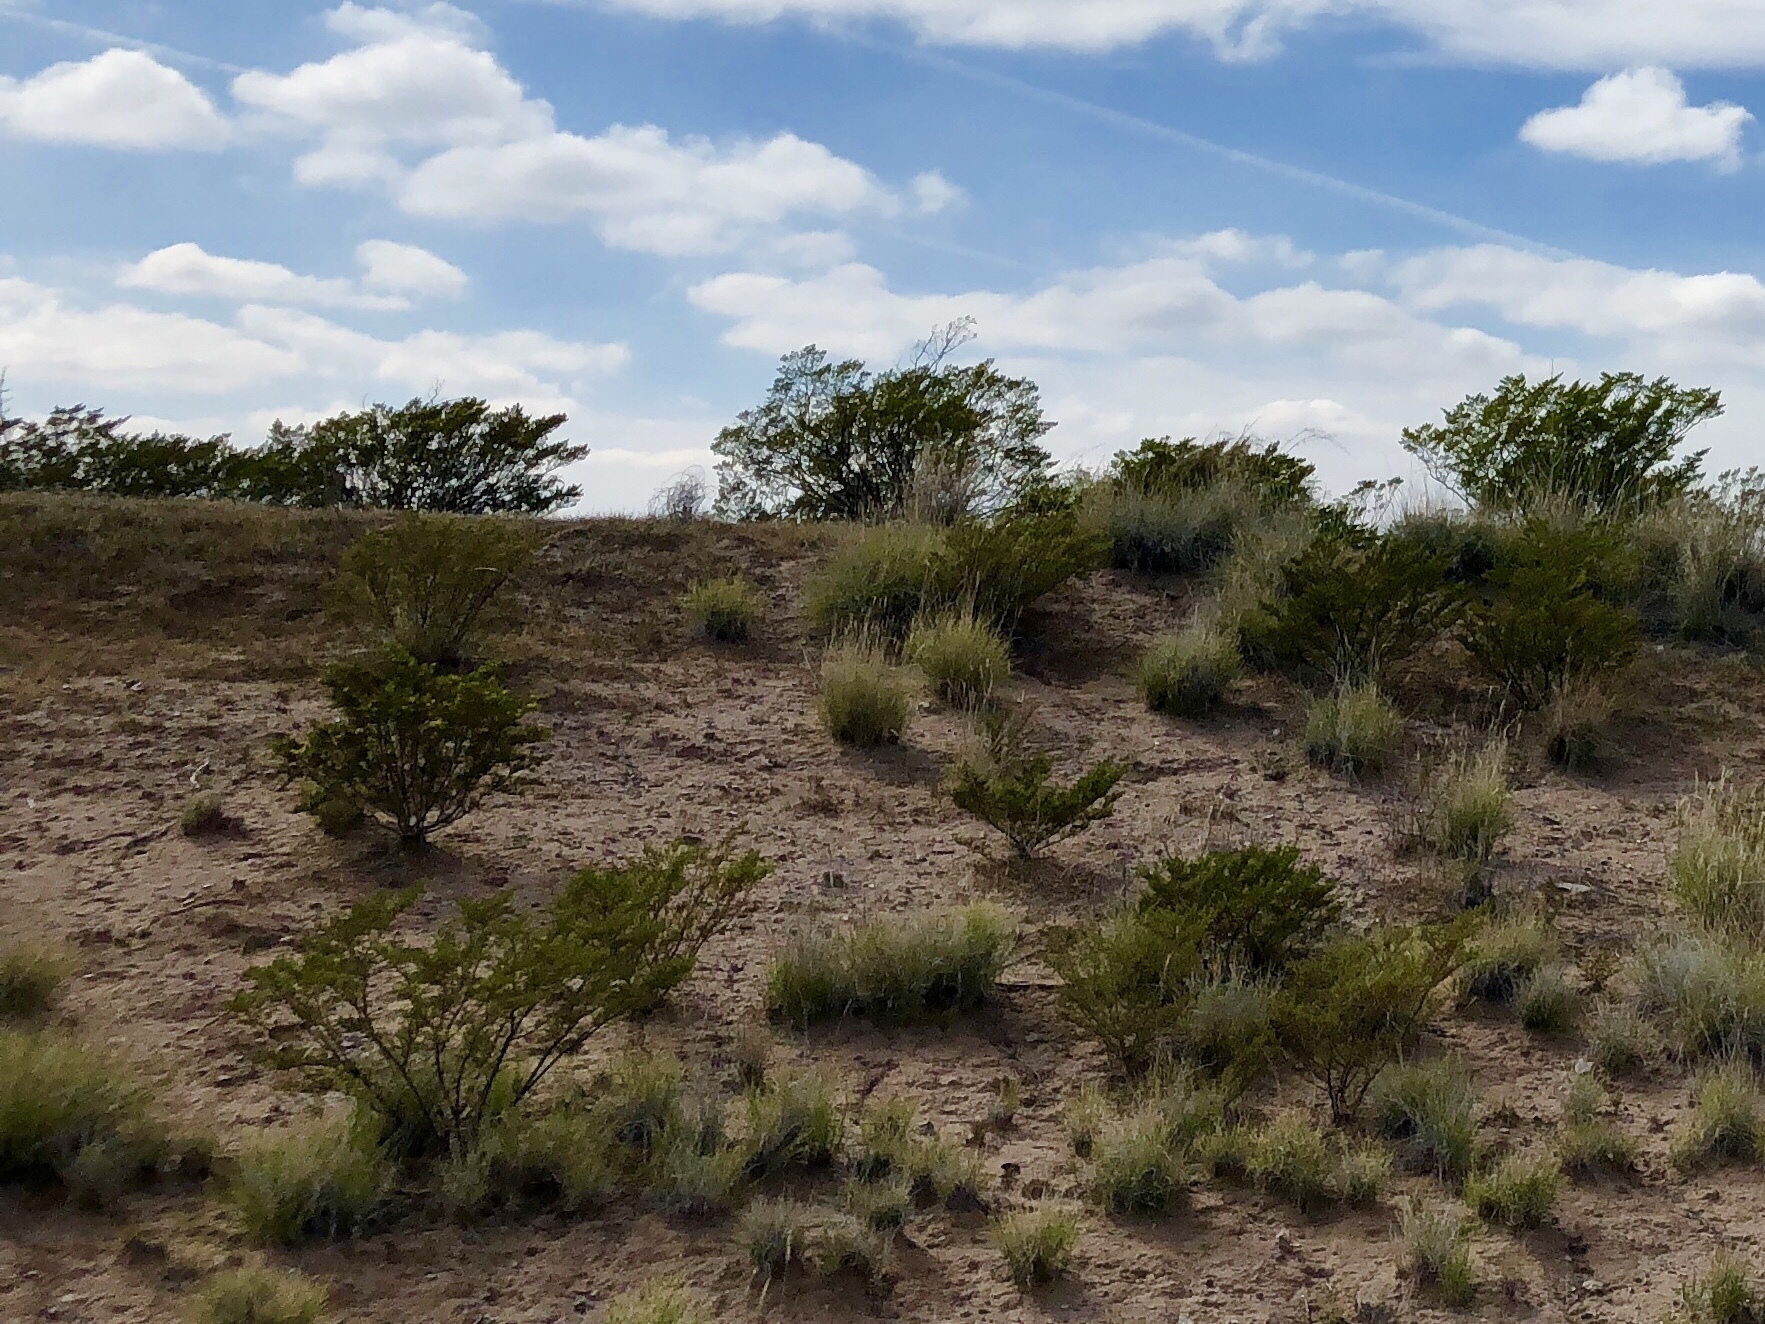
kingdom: Plantae
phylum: Tracheophyta
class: Magnoliopsida
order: Zygophyllales
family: Zygophyllaceae
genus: Larrea
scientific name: Larrea tridentata
